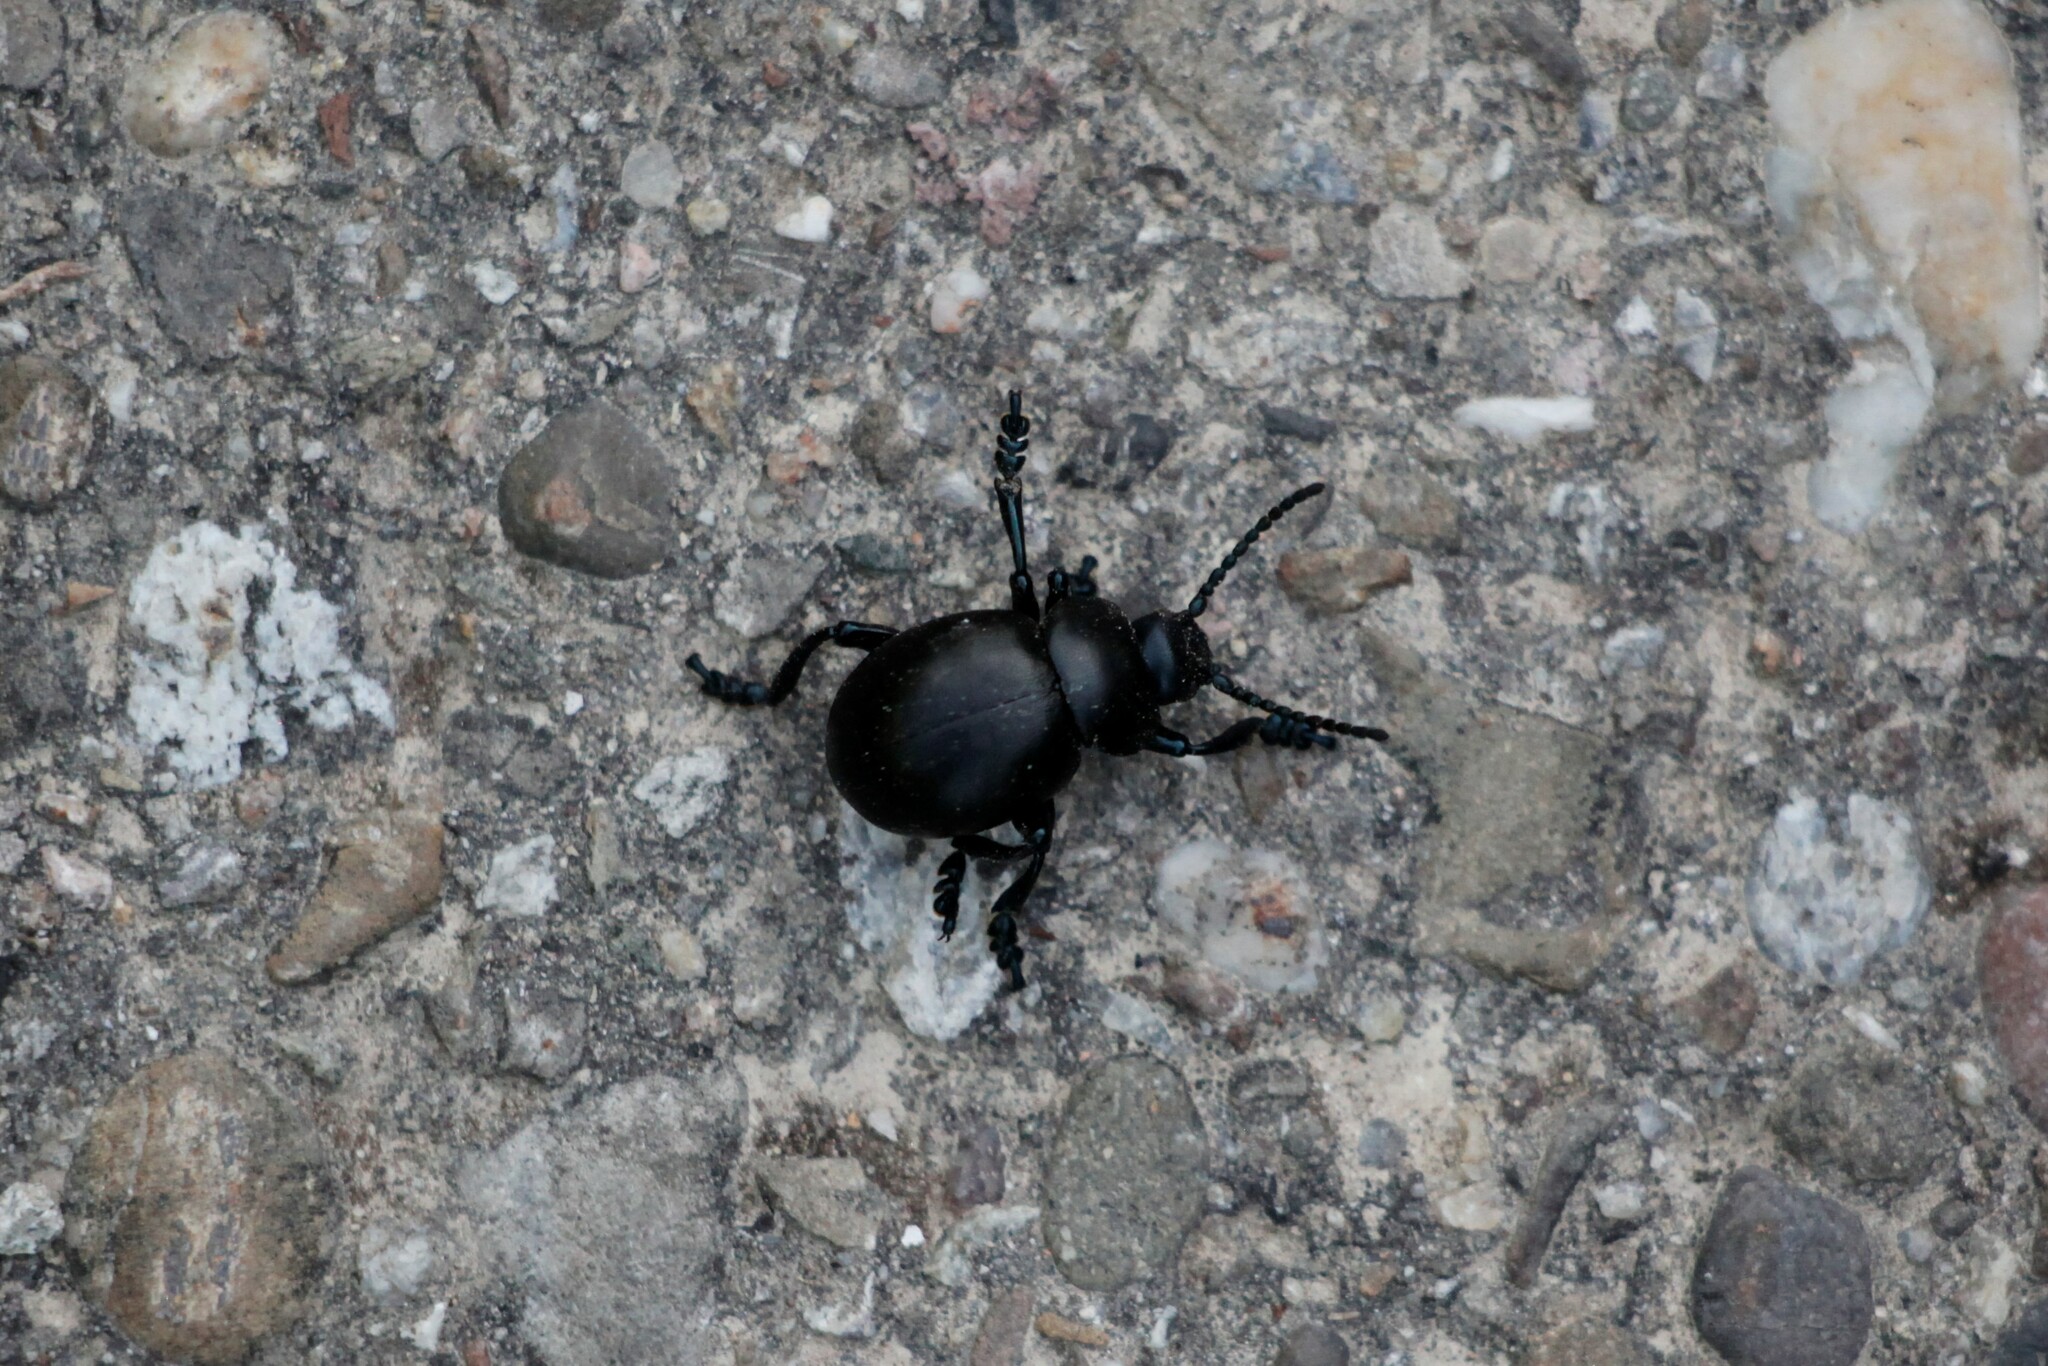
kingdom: Animalia
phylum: Arthropoda
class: Insecta
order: Coleoptera
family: Chrysomelidae
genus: Timarcha
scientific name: Timarcha tenebricosa
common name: Bloody-nosed beetle
